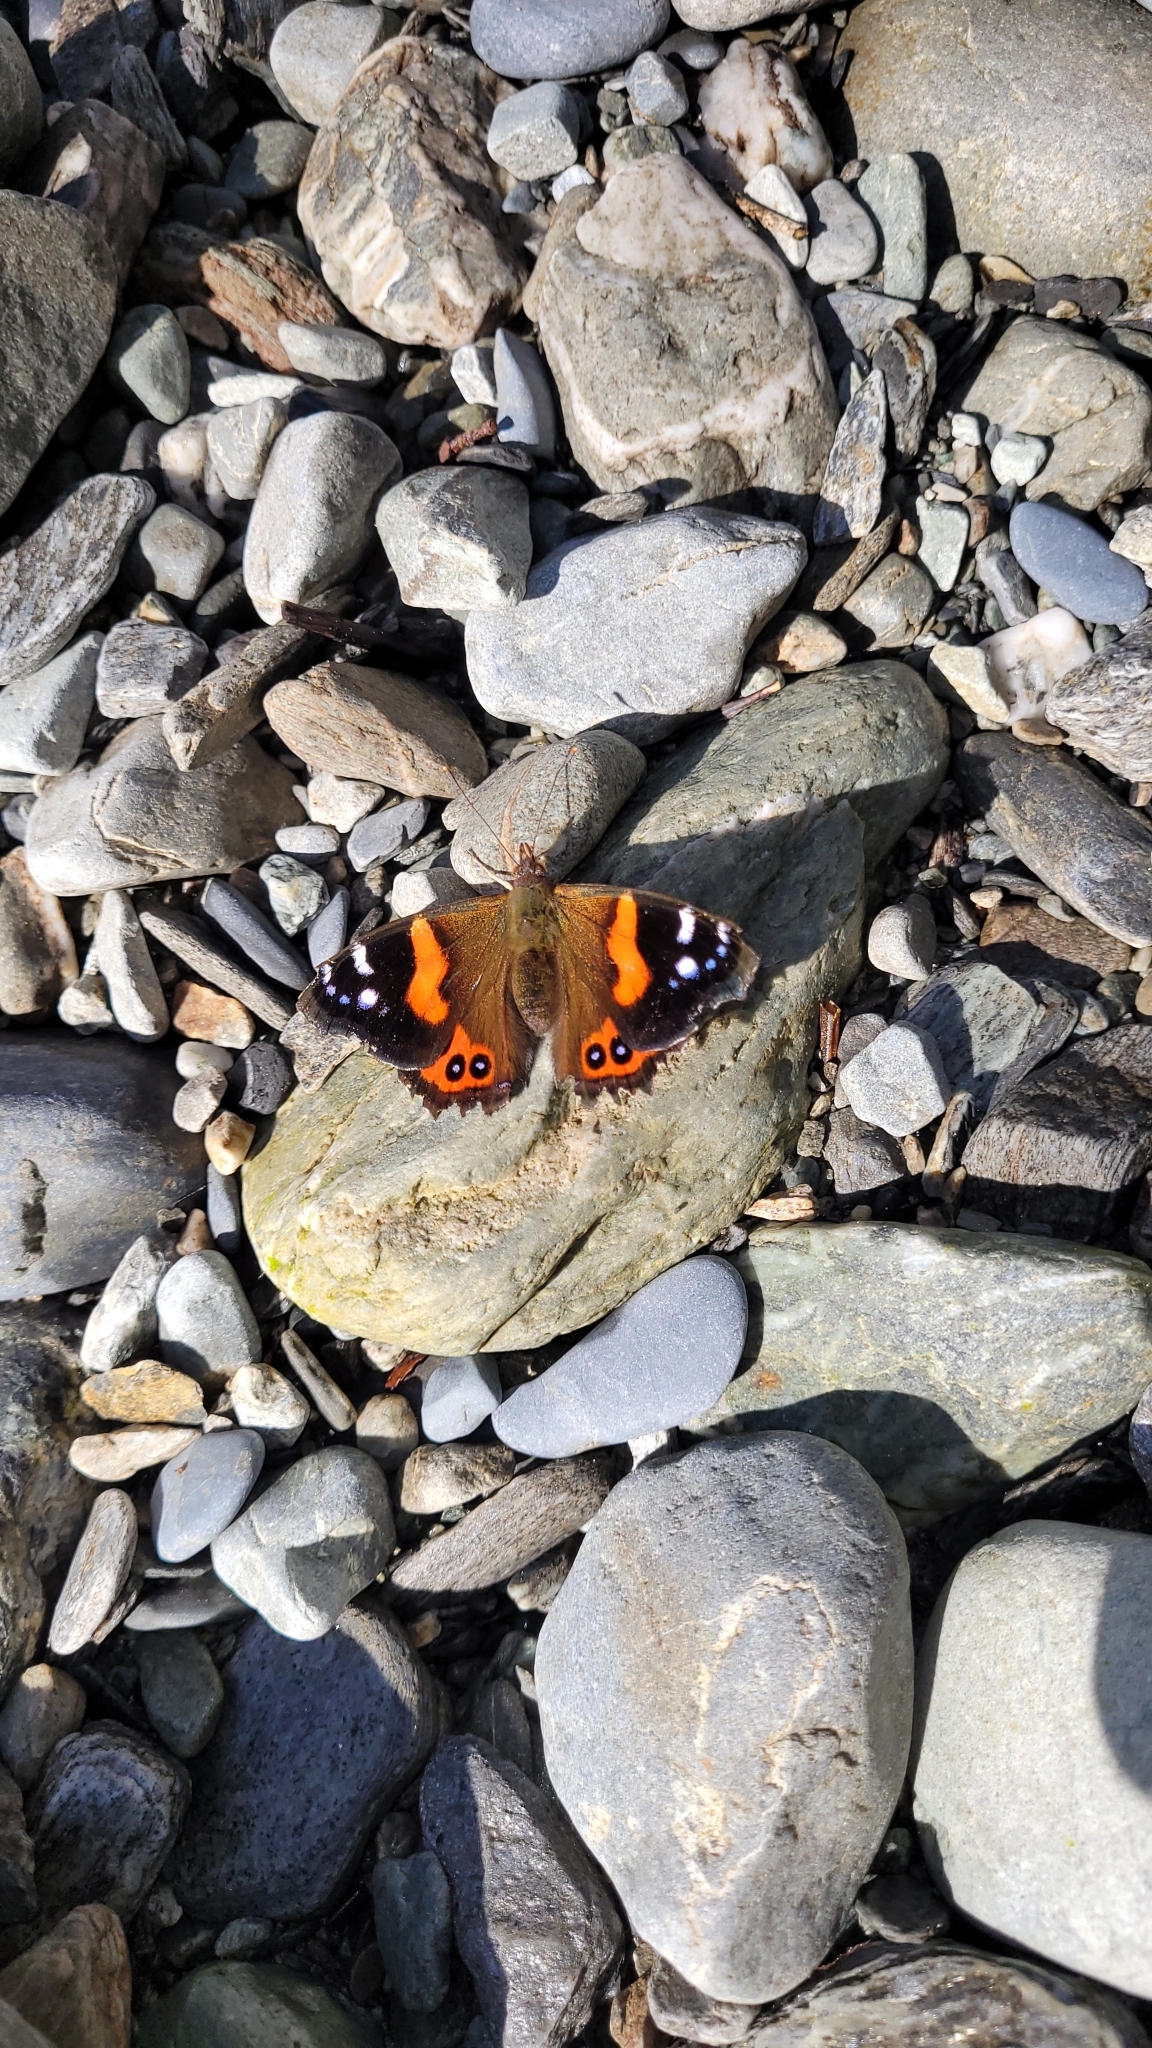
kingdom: Animalia
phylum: Arthropoda
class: Insecta
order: Lepidoptera
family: Nymphalidae
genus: Vanessa
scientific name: Vanessa gonerilla
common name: New zealand red admiral
